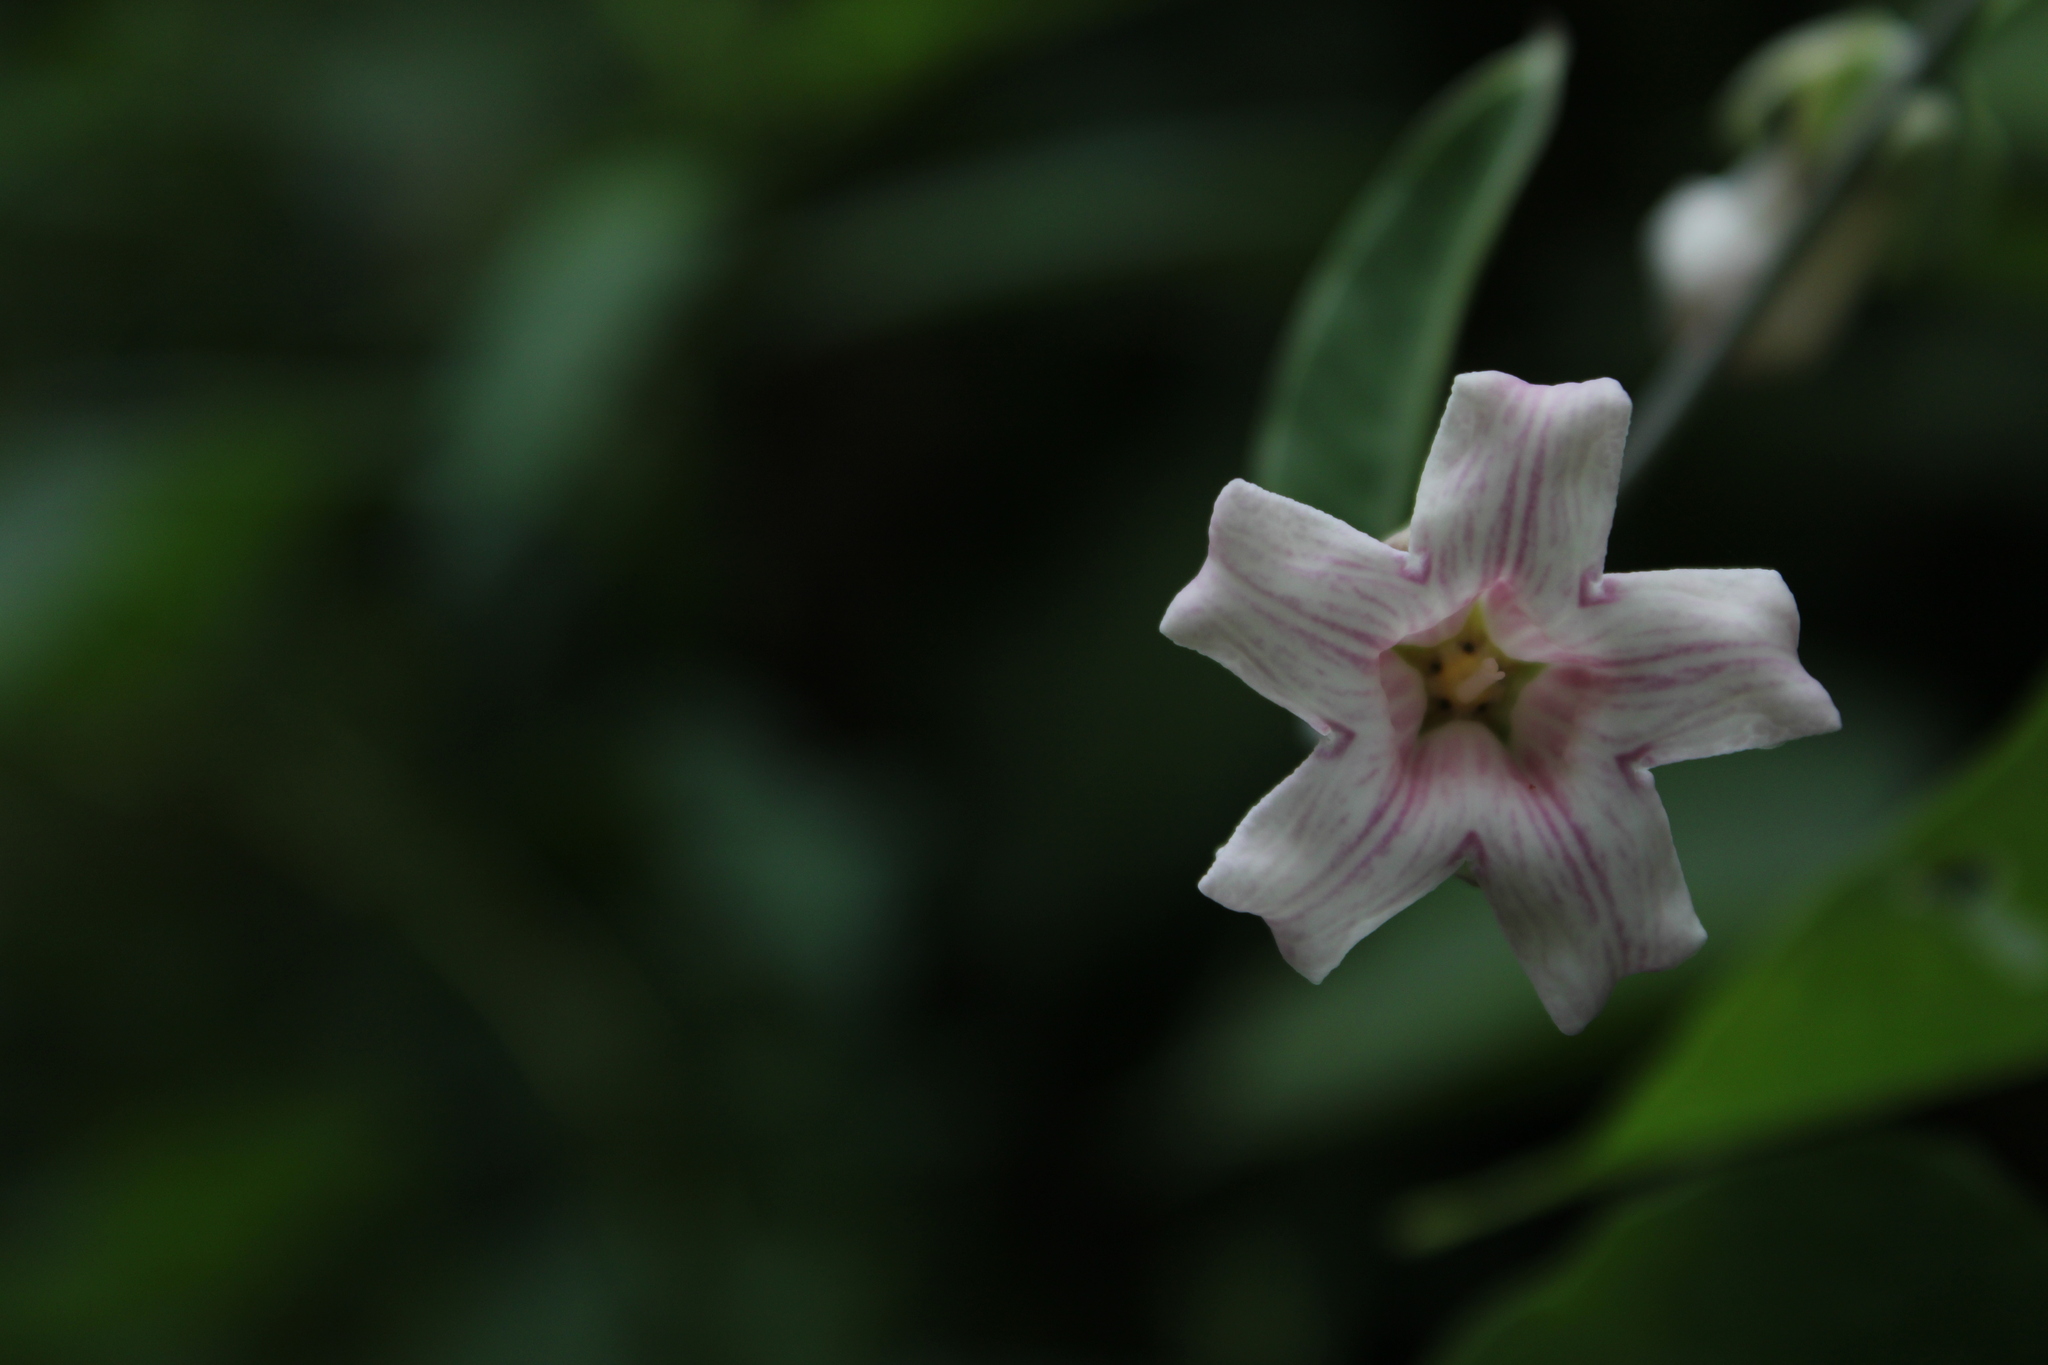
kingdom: Plantae
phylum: Tracheophyta
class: Magnoliopsida
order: Gentianales
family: Apocynaceae
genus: Araujia
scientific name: Araujia sericifera
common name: White bladderflower
